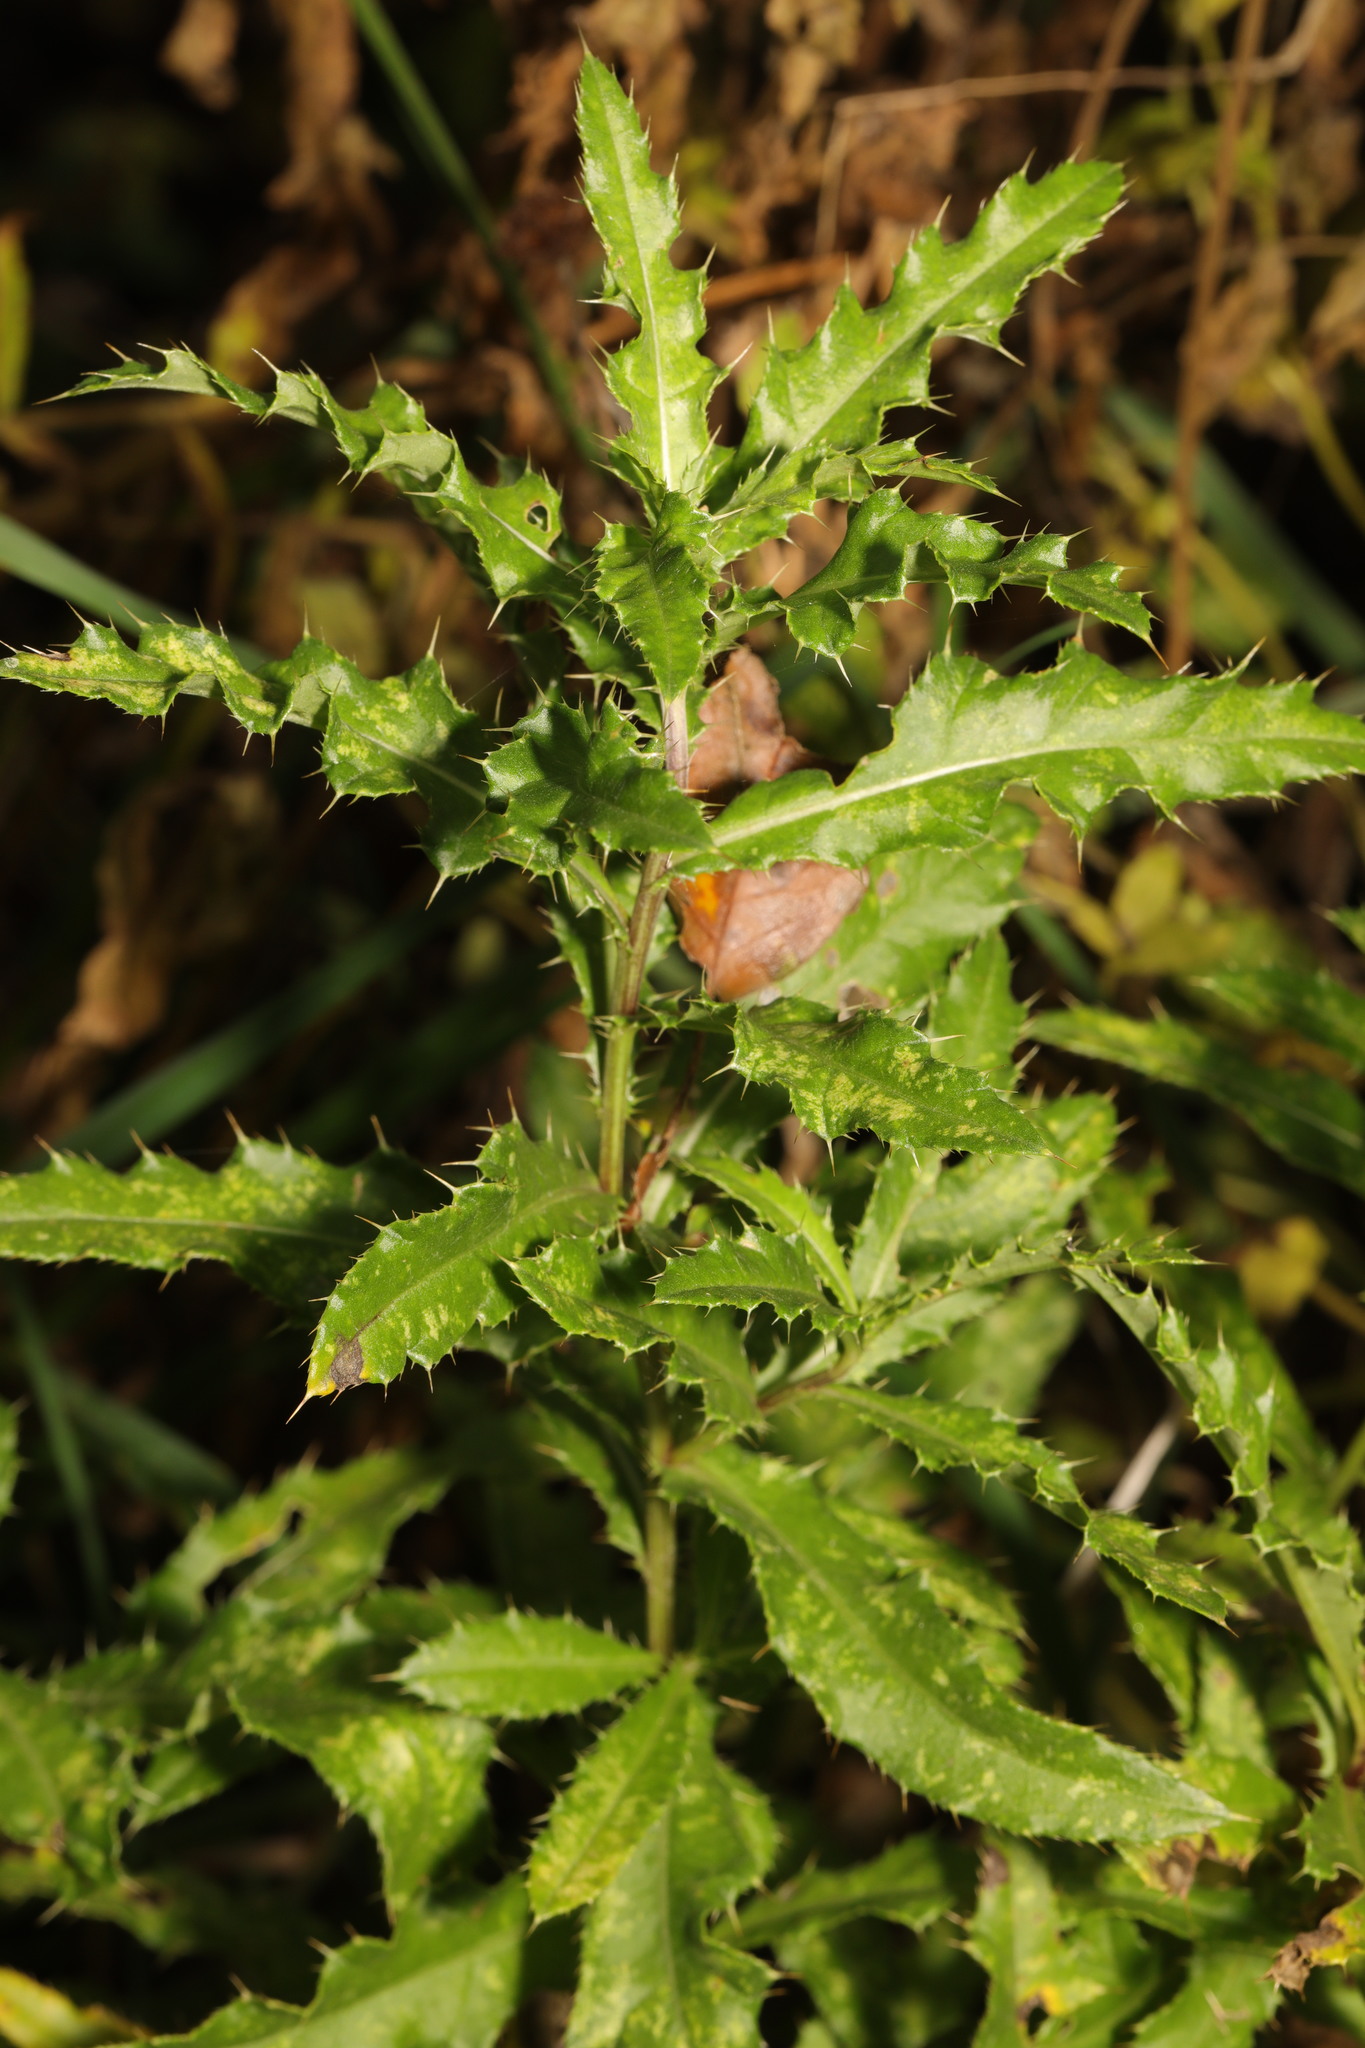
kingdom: Plantae
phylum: Tracheophyta
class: Magnoliopsida
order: Asterales
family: Asteraceae
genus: Cirsium
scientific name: Cirsium arvense
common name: Creeping thistle
